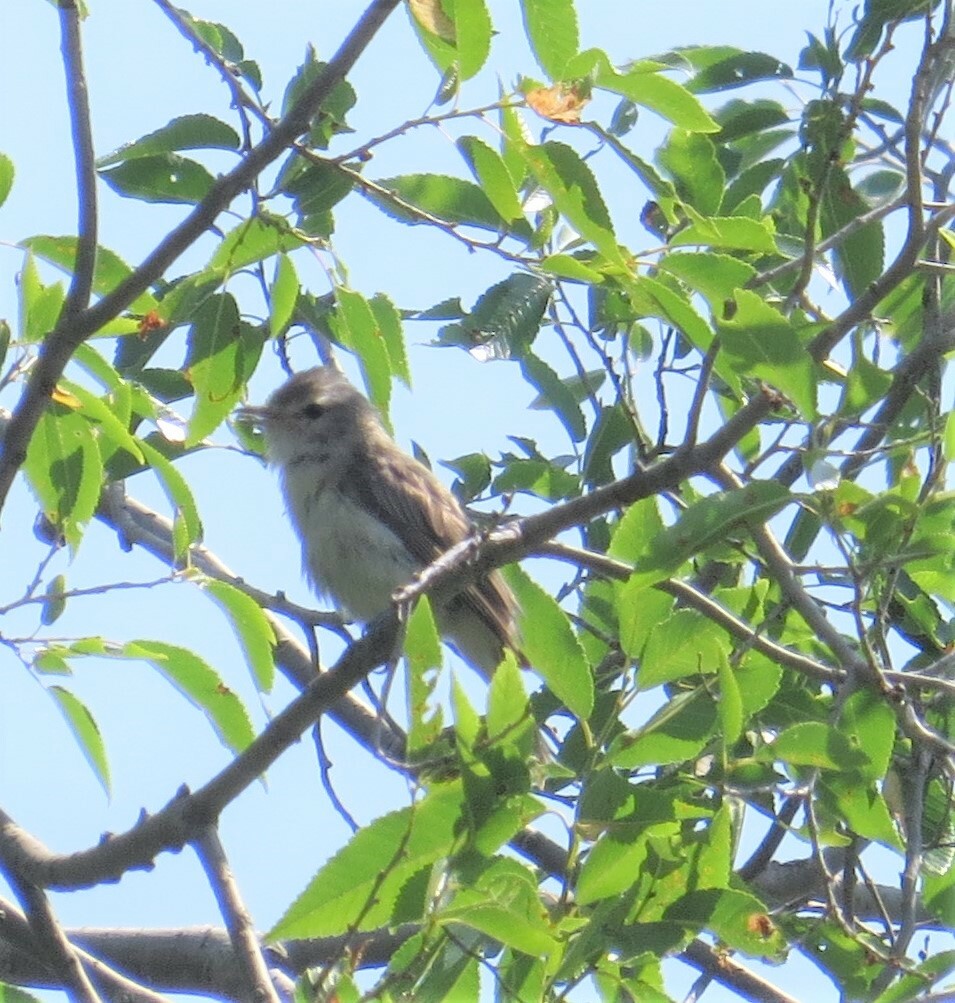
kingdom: Animalia
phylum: Chordata
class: Aves
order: Passeriformes
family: Vireonidae
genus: Vireo
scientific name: Vireo gilvus
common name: Warbling vireo
